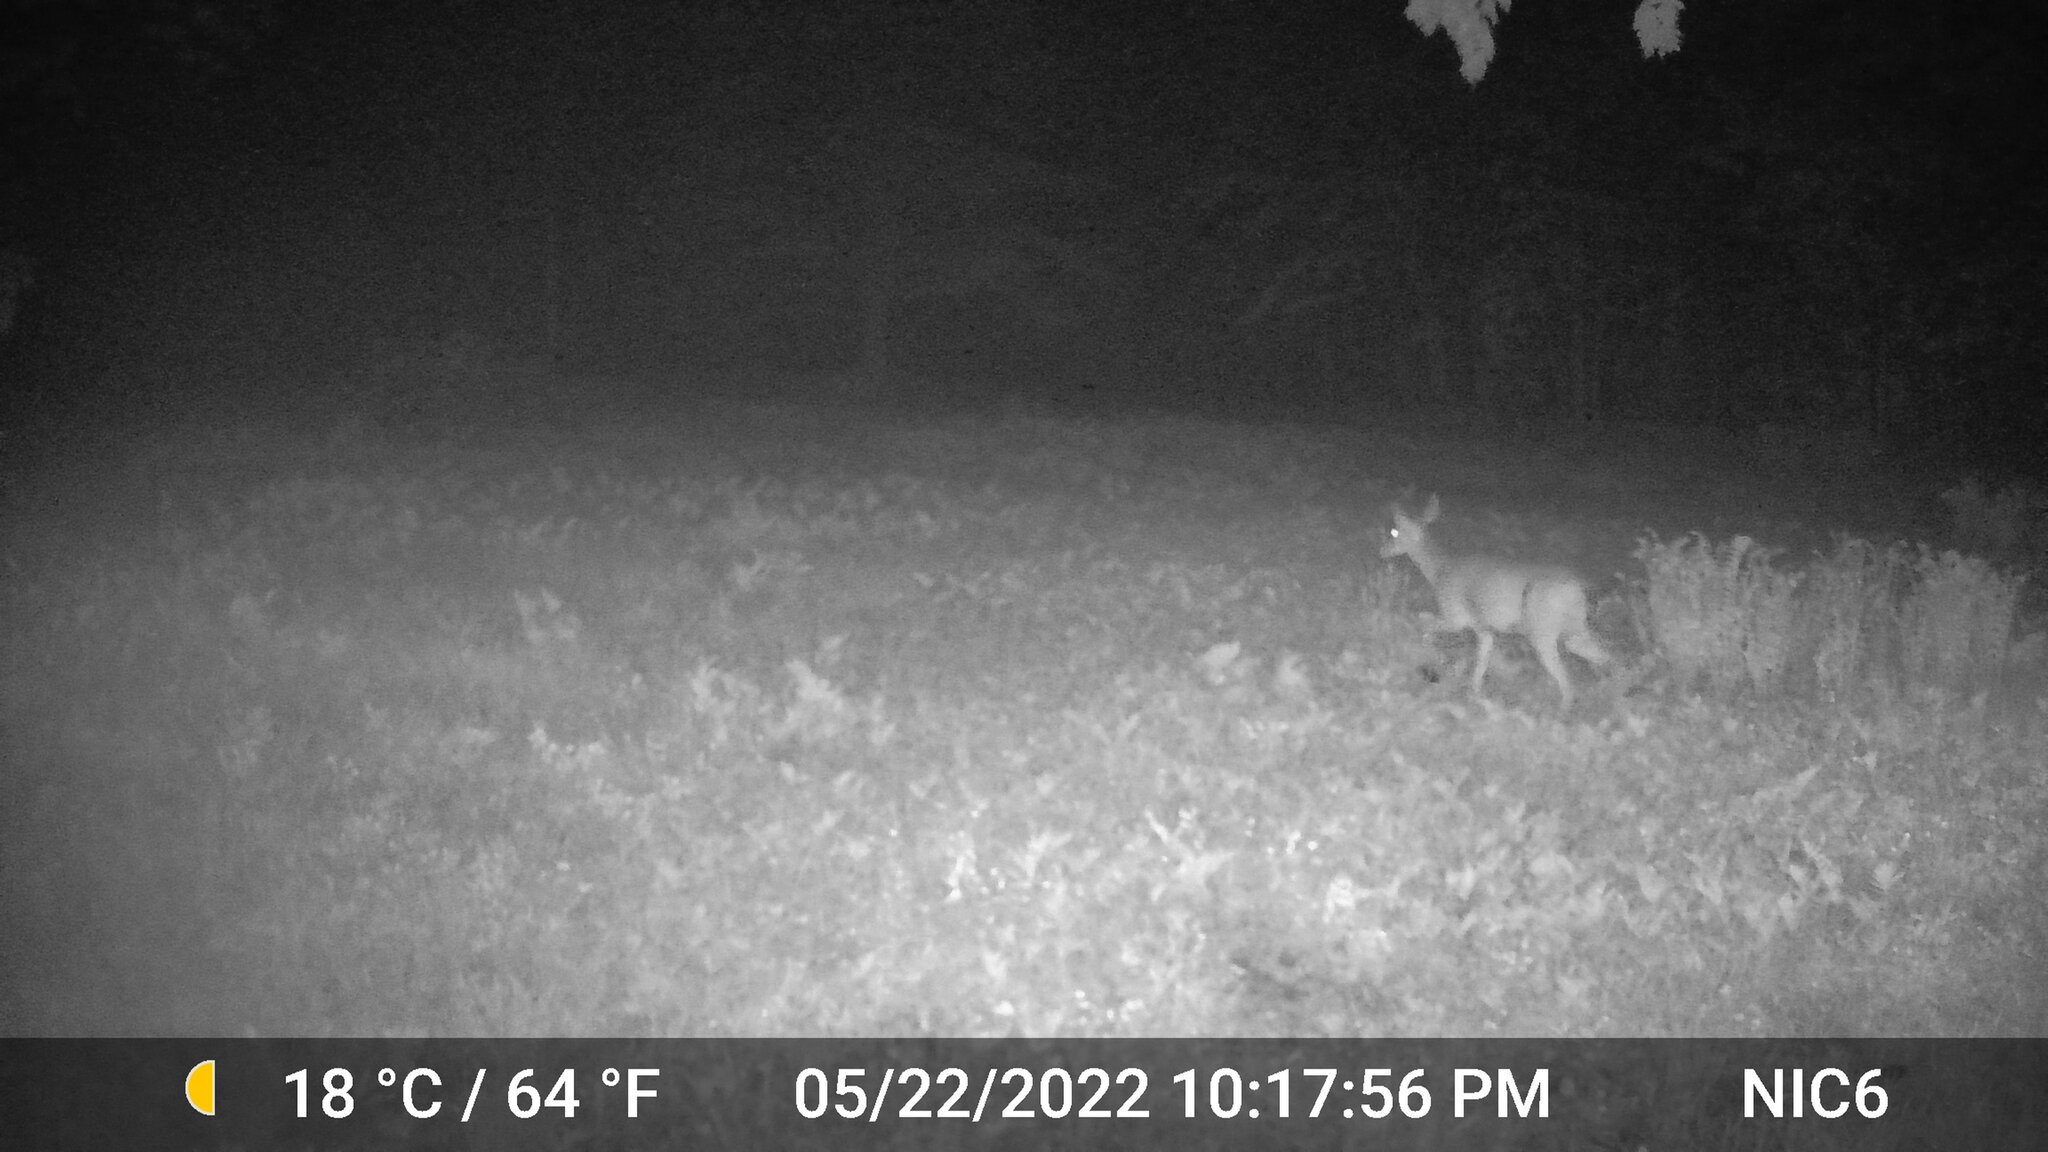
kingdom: Animalia
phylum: Chordata
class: Mammalia
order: Artiodactyla
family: Cervidae
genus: Odocoileus
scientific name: Odocoileus virginianus
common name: White-tailed deer
